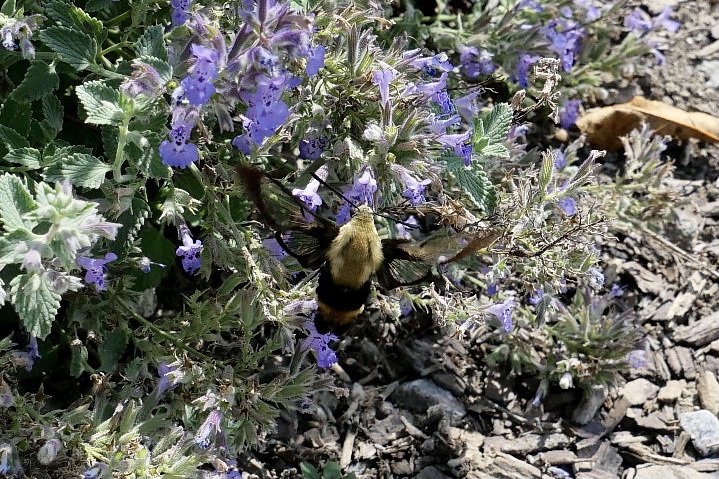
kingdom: Animalia
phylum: Arthropoda
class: Insecta
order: Lepidoptera
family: Sphingidae
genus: Hemaris
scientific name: Hemaris diffinis
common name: Bumblebee moth
